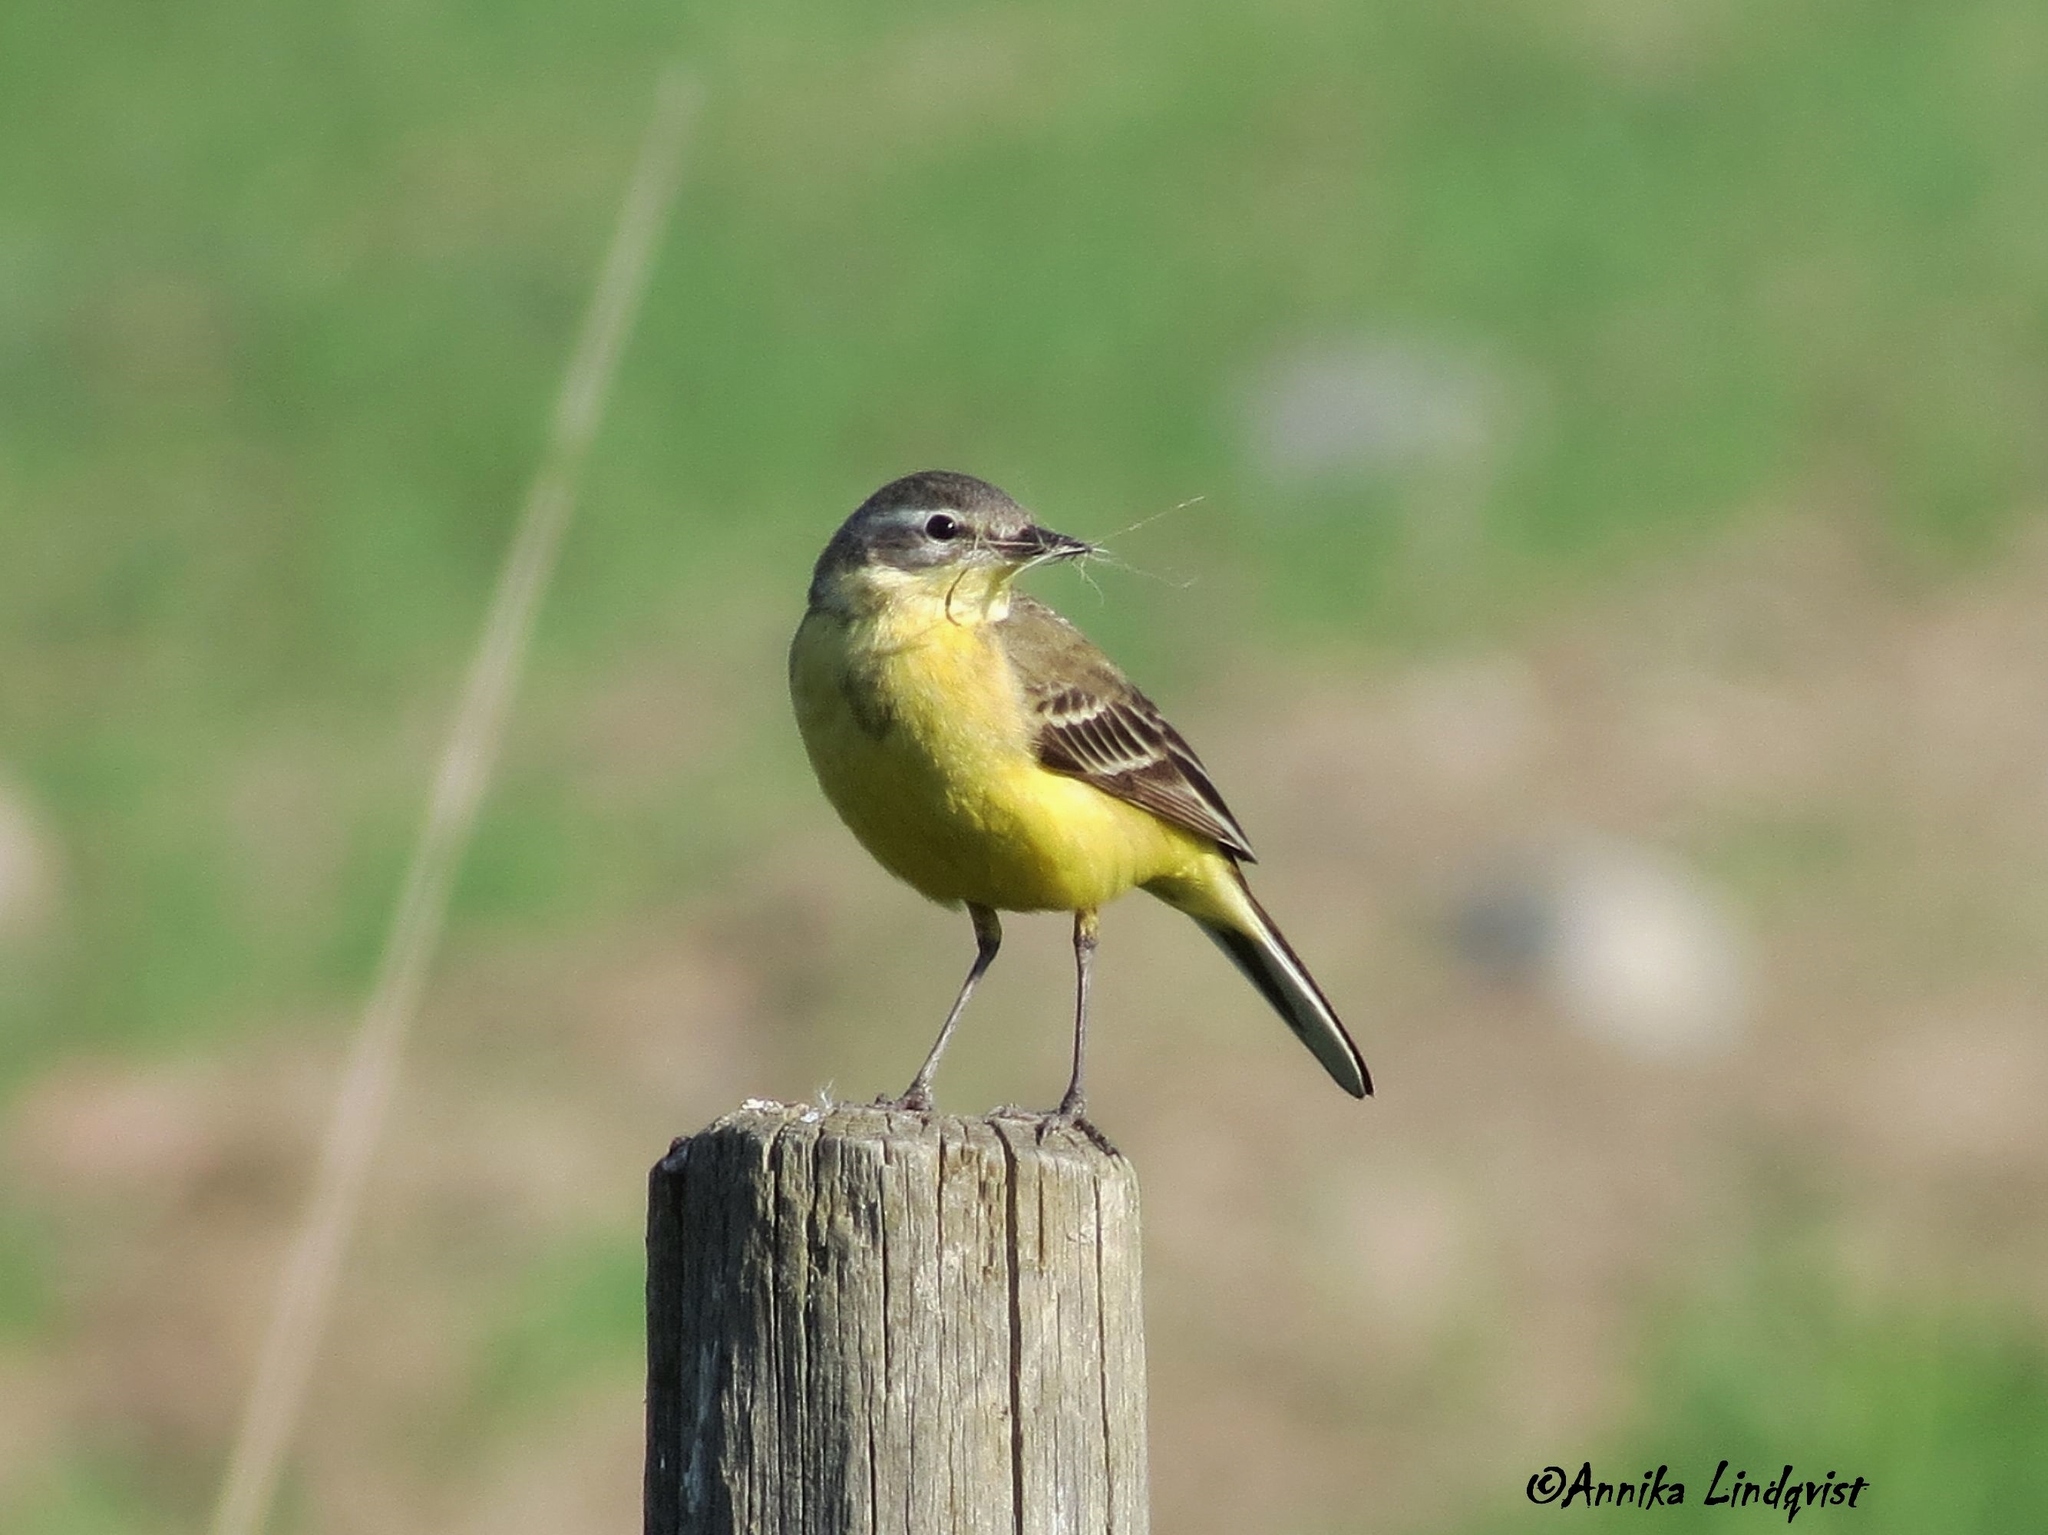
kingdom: Animalia
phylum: Chordata
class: Aves
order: Passeriformes
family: Motacillidae
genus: Motacilla
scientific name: Motacilla flava
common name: Western yellow wagtail
